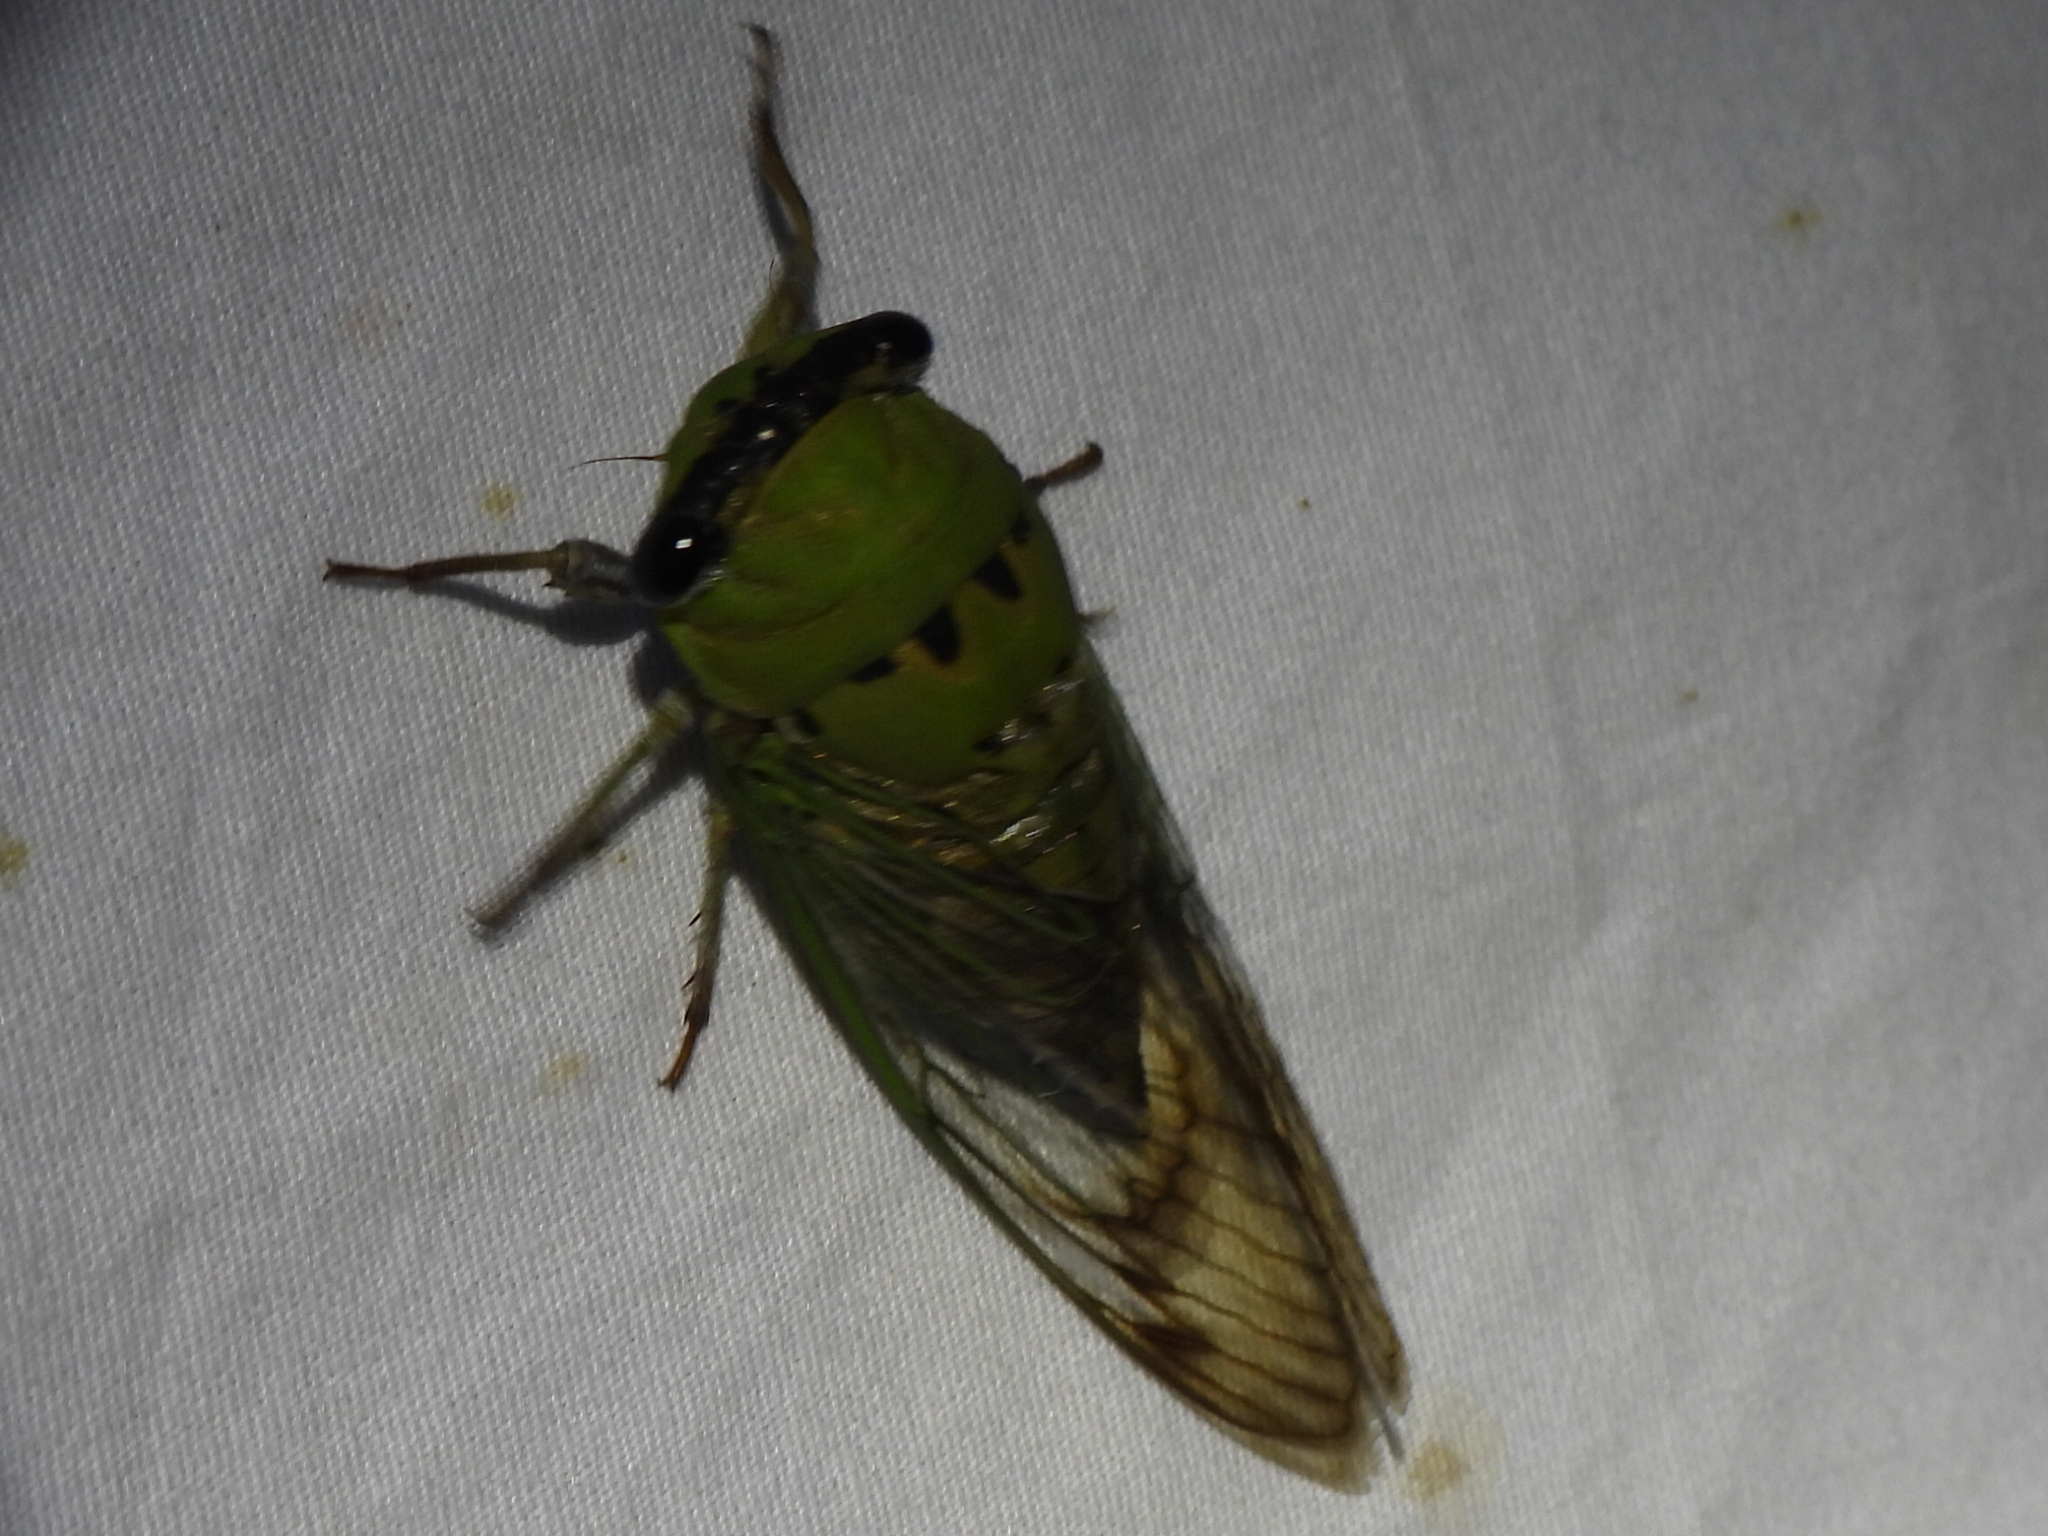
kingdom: Animalia
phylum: Arthropoda
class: Insecta
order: Hemiptera
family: Cicadidae
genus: Neotibicen
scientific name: Neotibicen superbus
